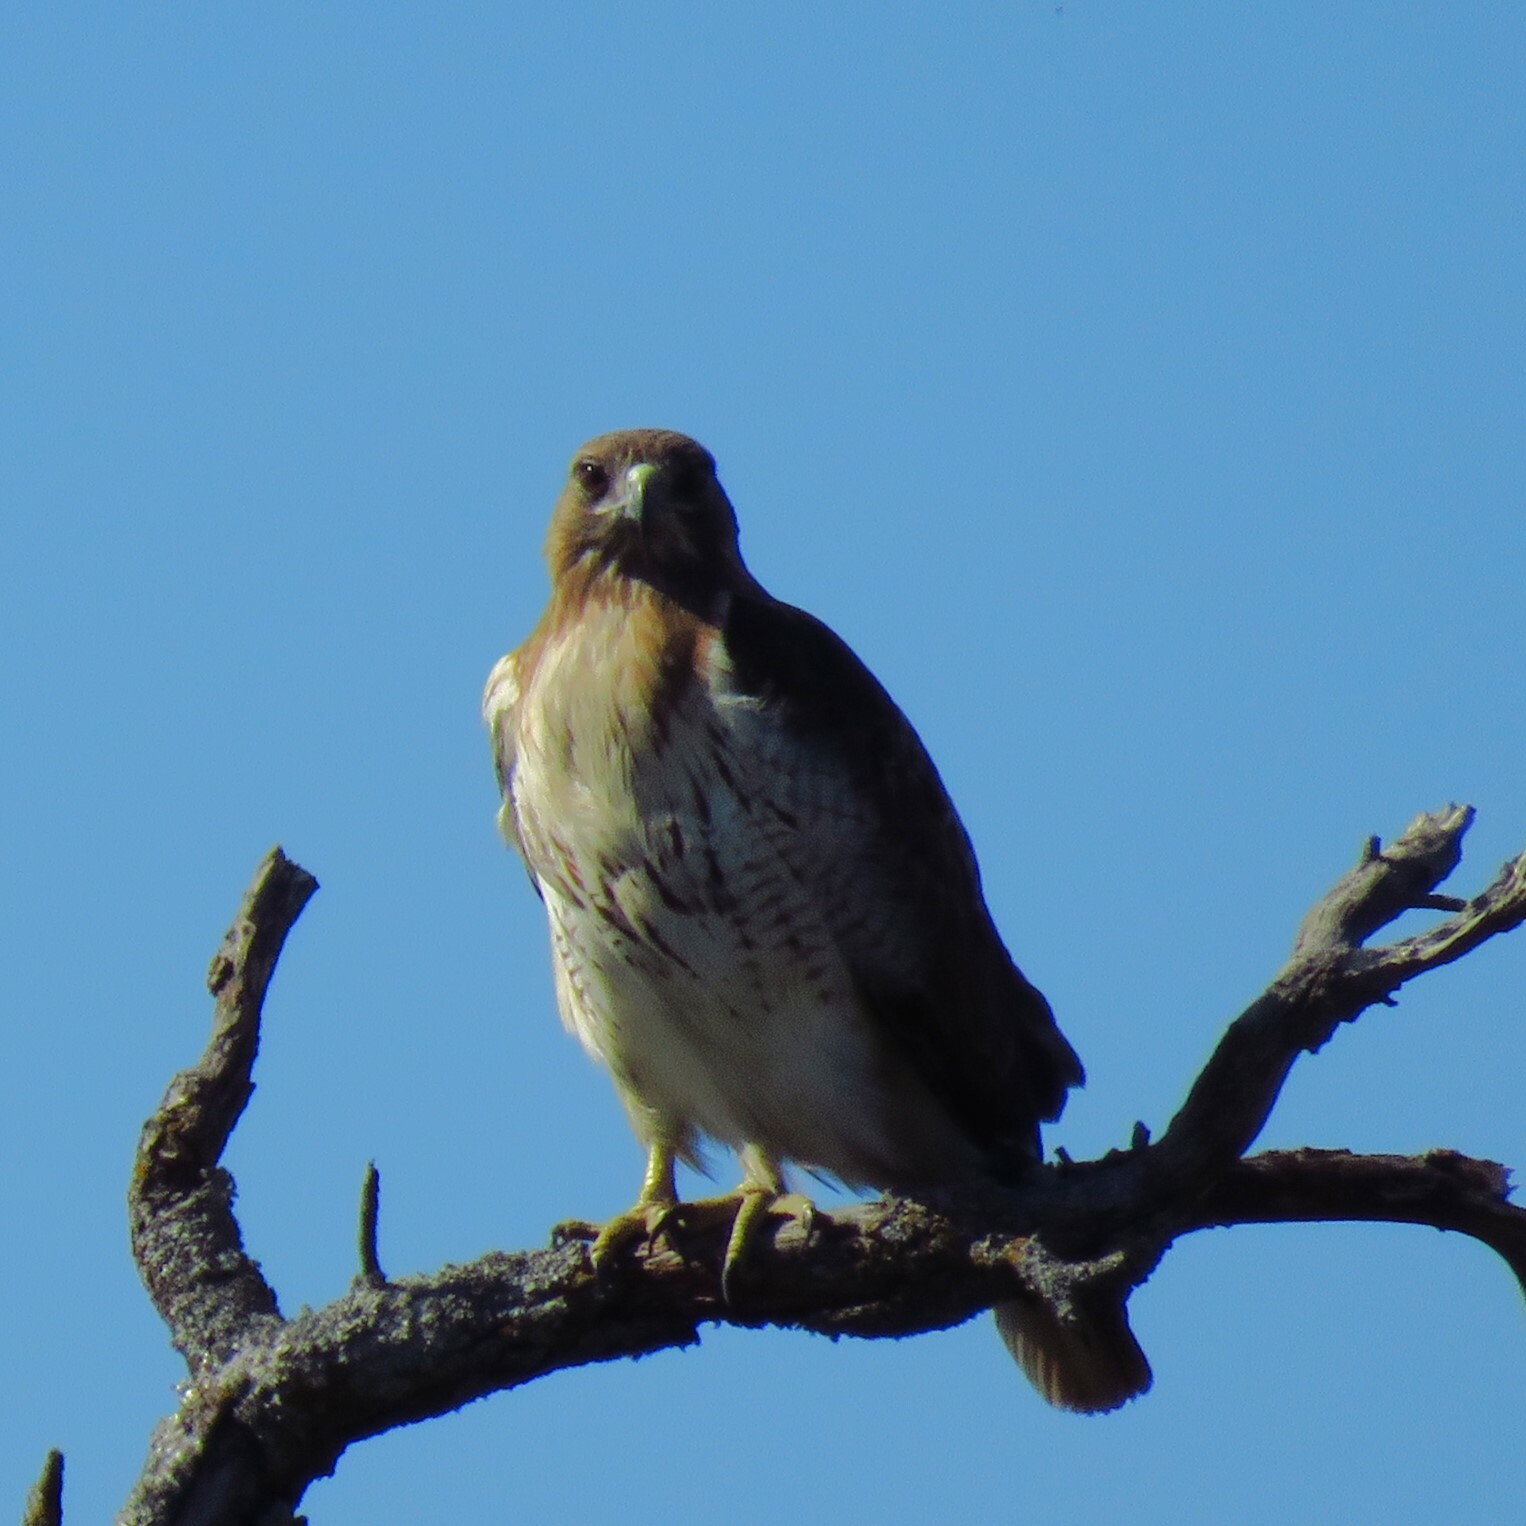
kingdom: Animalia
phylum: Chordata
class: Aves
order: Accipitriformes
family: Accipitridae
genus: Buteo
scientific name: Buteo jamaicensis
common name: Red-tailed hawk
